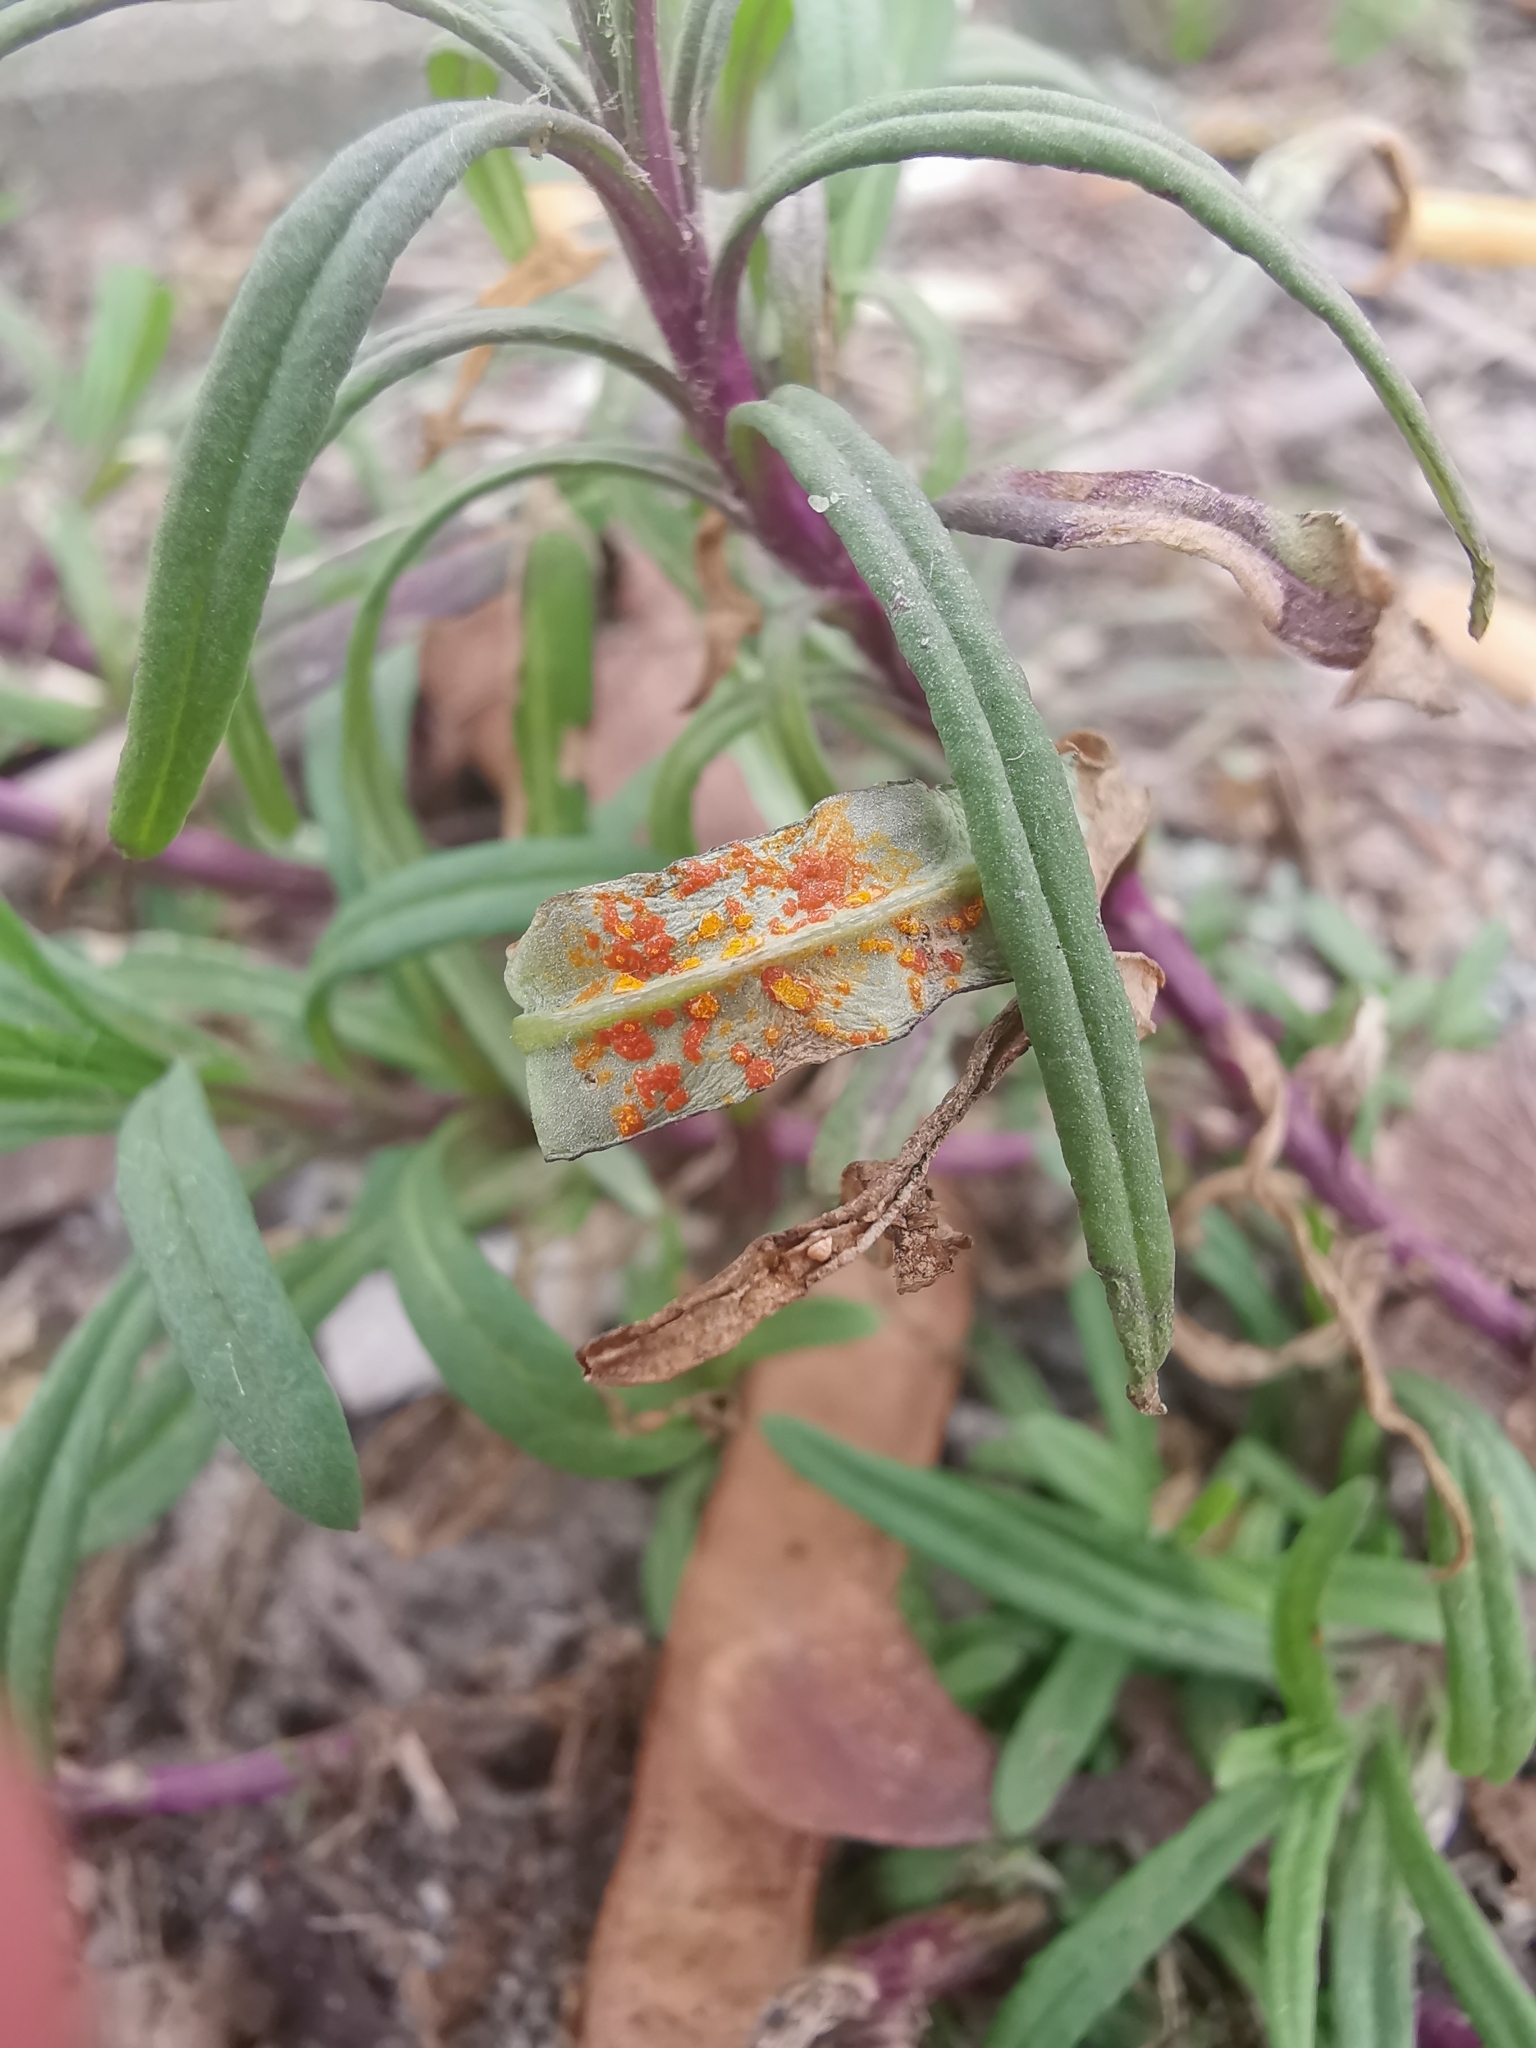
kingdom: Fungi
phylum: Basidiomycota
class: Pucciniomycetes
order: Pucciniales
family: Coleosporiaceae
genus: Coleosporium
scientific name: Coleosporium senecionis
